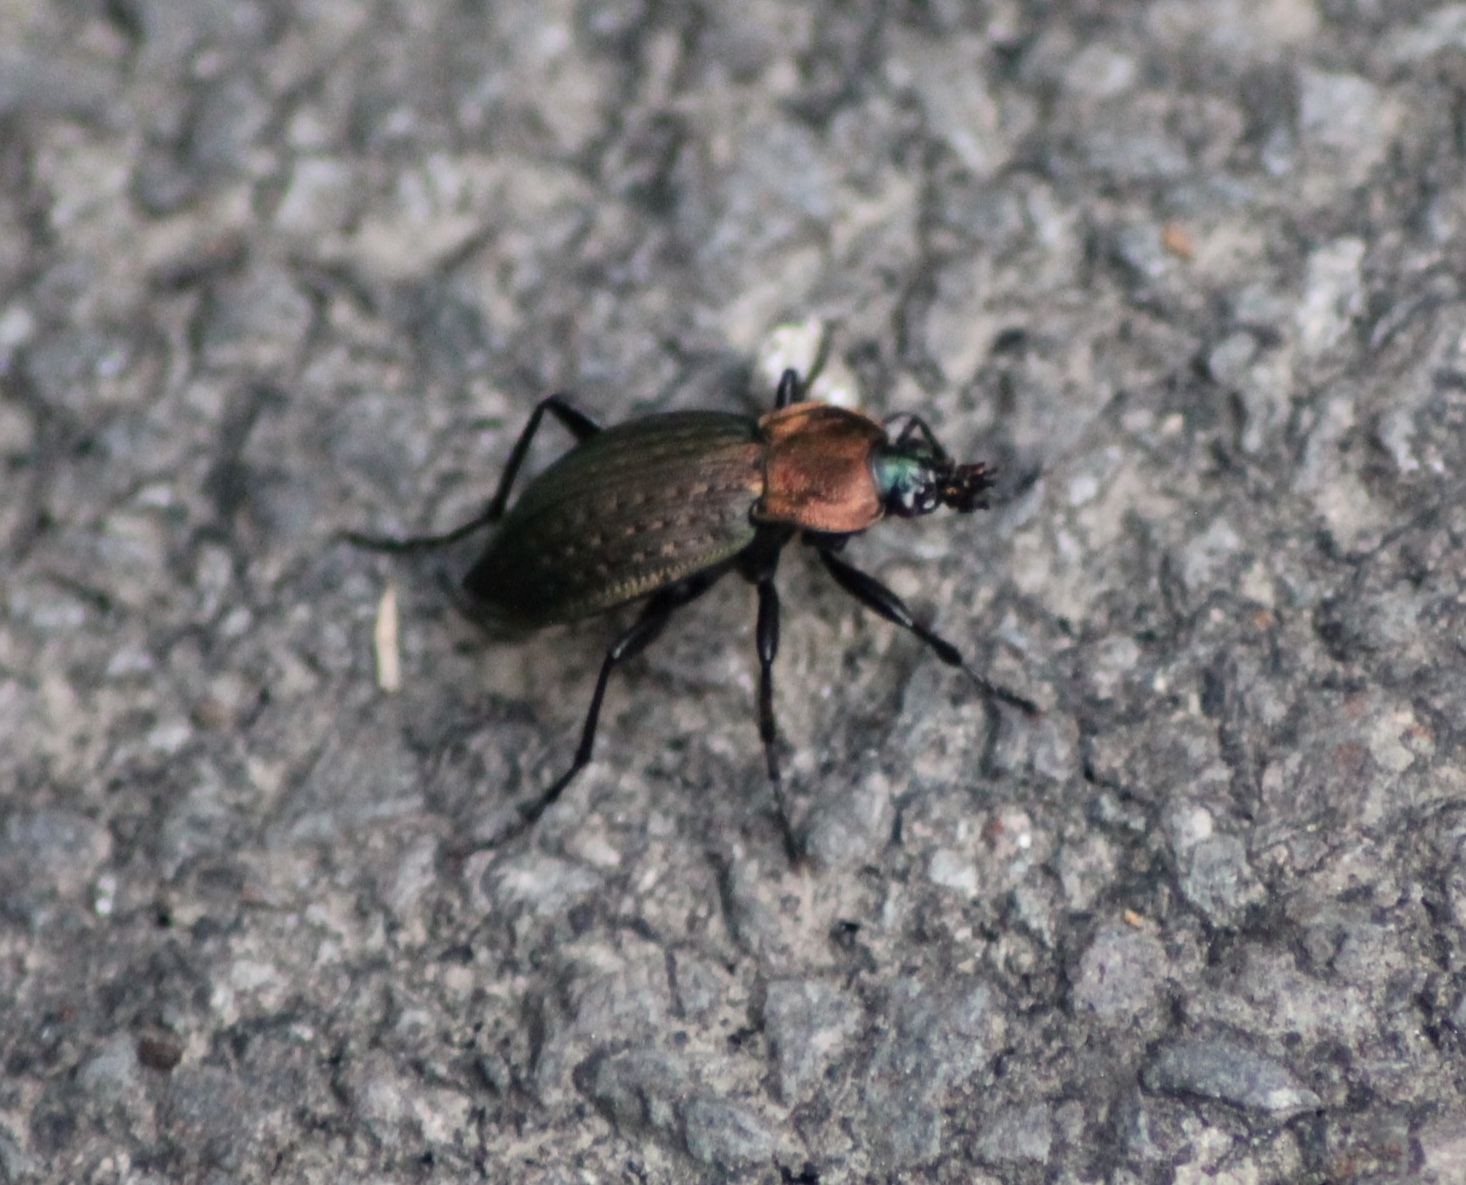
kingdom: Animalia
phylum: Arthropoda
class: Insecta
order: Coleoptera
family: Carabidae
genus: Carabus
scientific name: Carabus ulrichii
